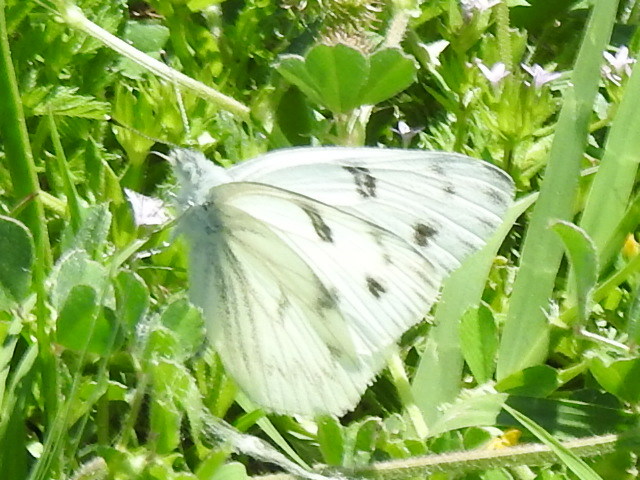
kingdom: Animalia
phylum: Arthropoda
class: Insecta
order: Lepidoptera
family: Pieridae
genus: Pontia
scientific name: Pontia protodice
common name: Checkered white
